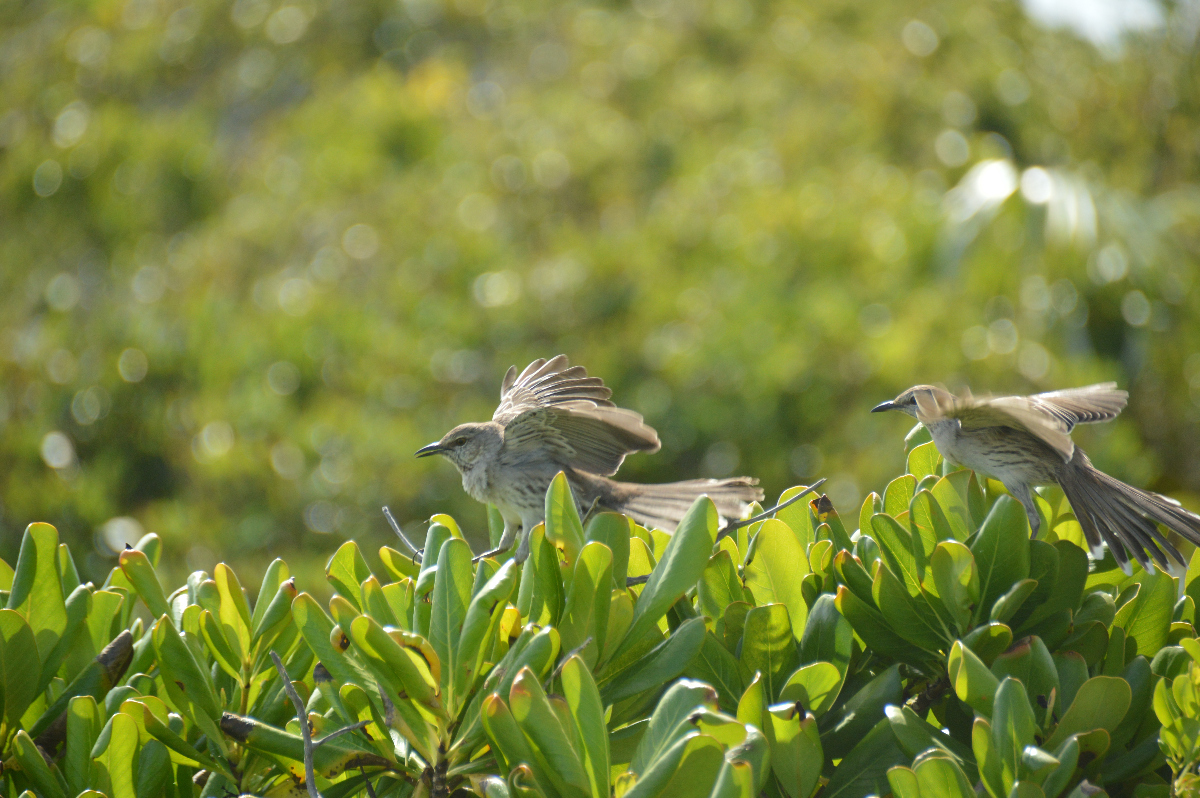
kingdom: Animalia
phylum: Chordata
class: Aves
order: Passeriformes
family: Mimidae
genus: Mimus
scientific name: Mimus gundlachii
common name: Bahama mockingbird
